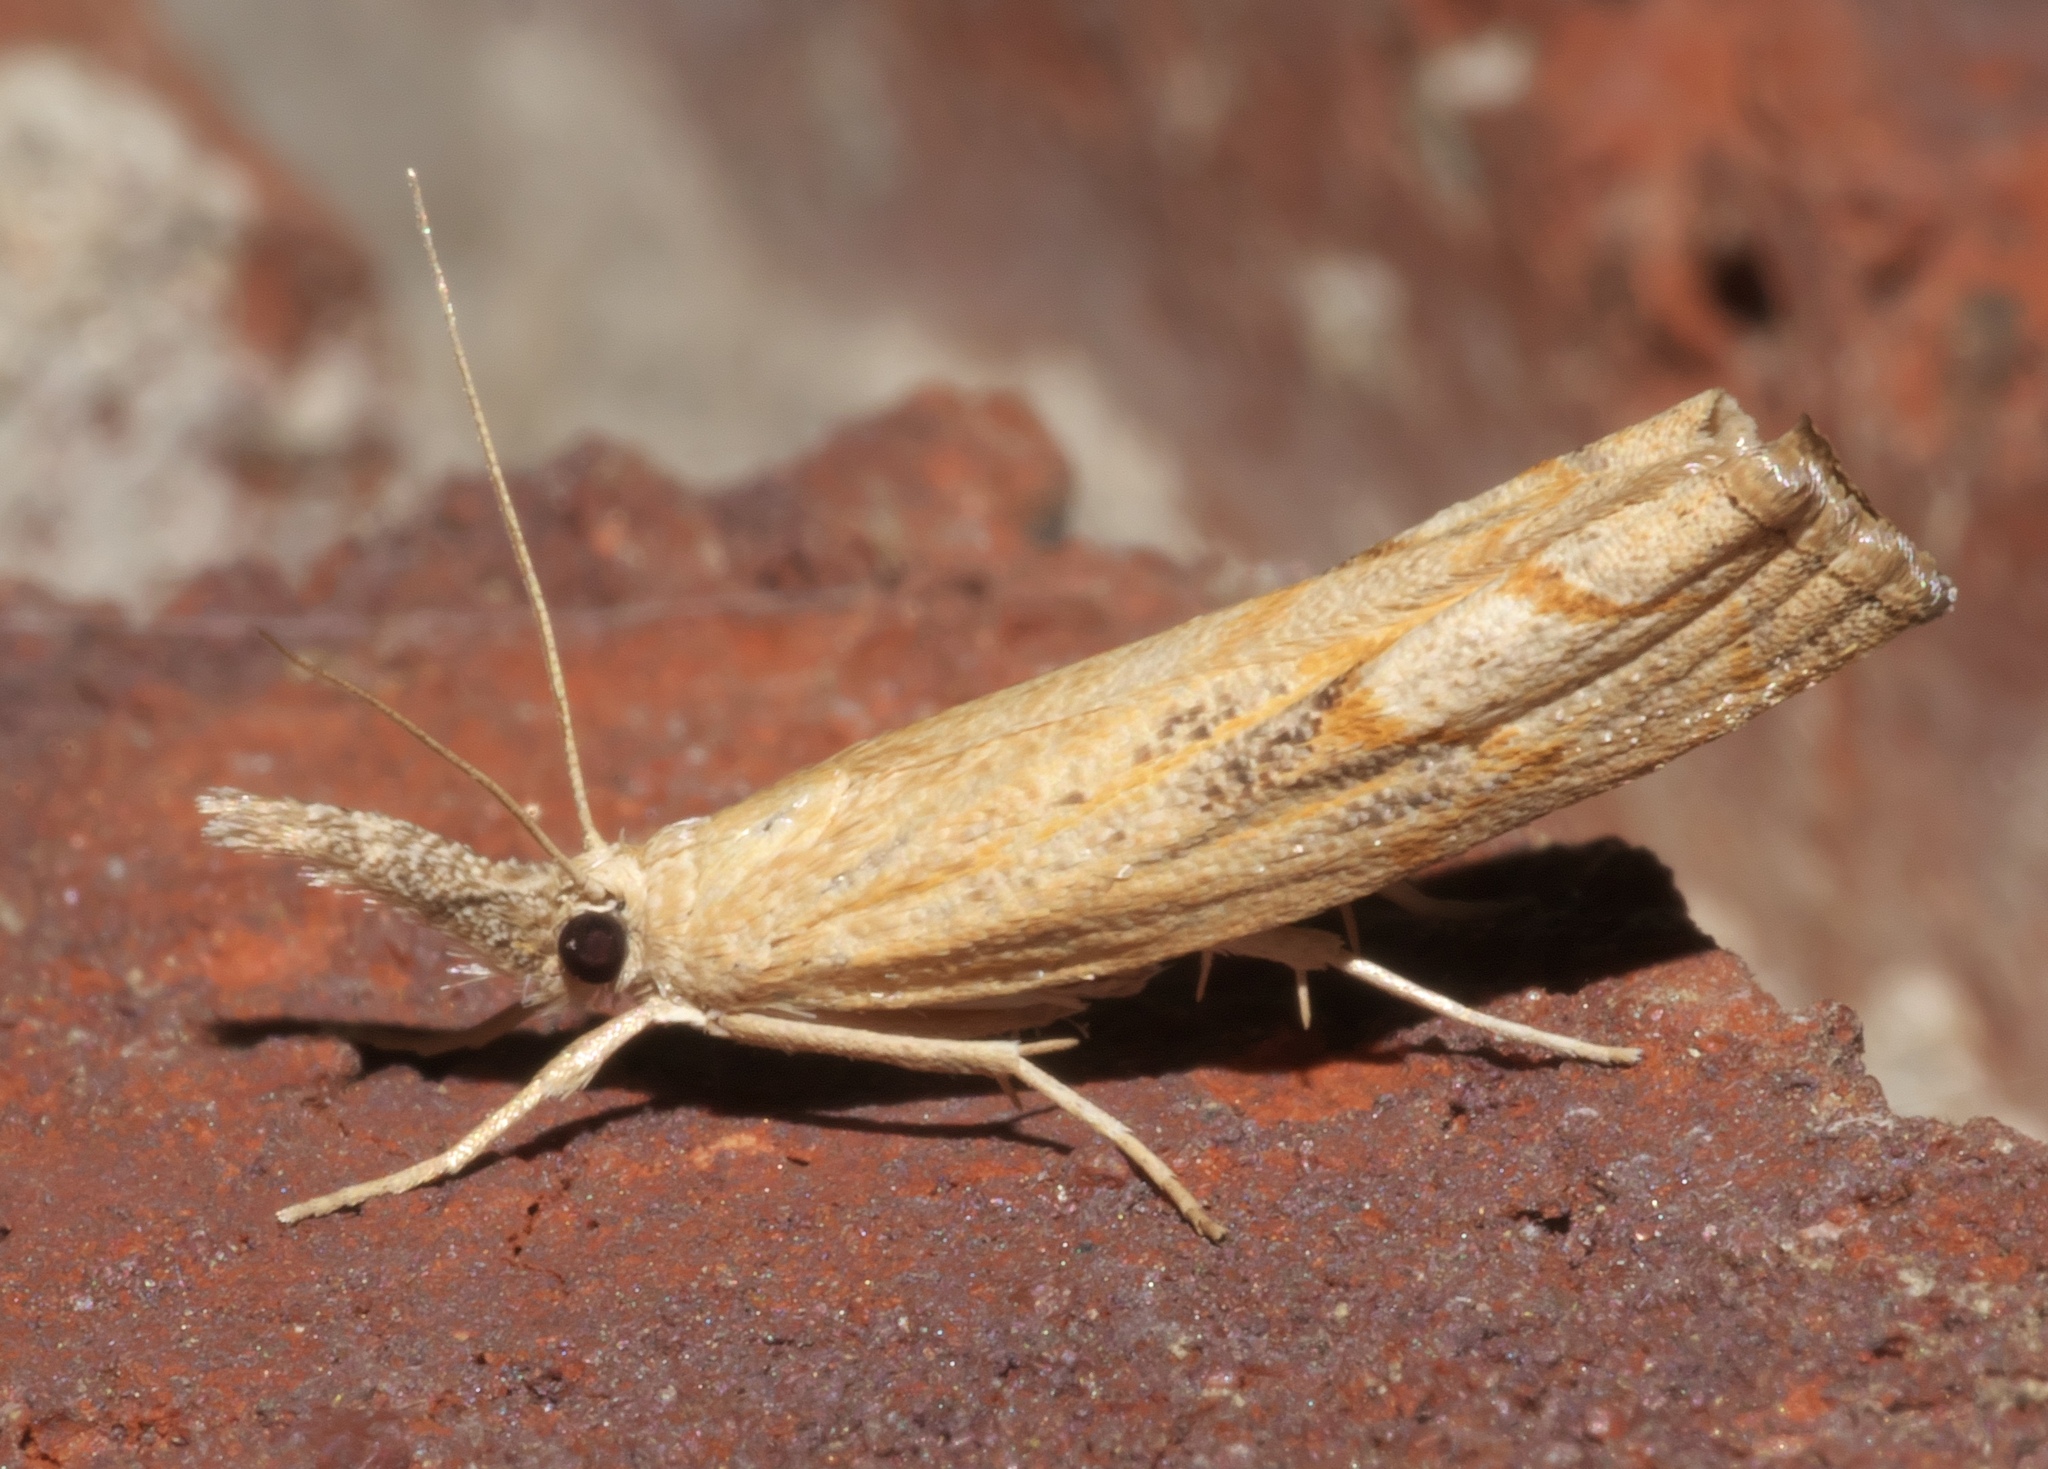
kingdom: Animalia
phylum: Arthropoda
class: Insecta
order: Lepidoptera
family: Crambidae
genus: Neodactria
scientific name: Neodactria luteolellus
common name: Mottled grass-veneer
